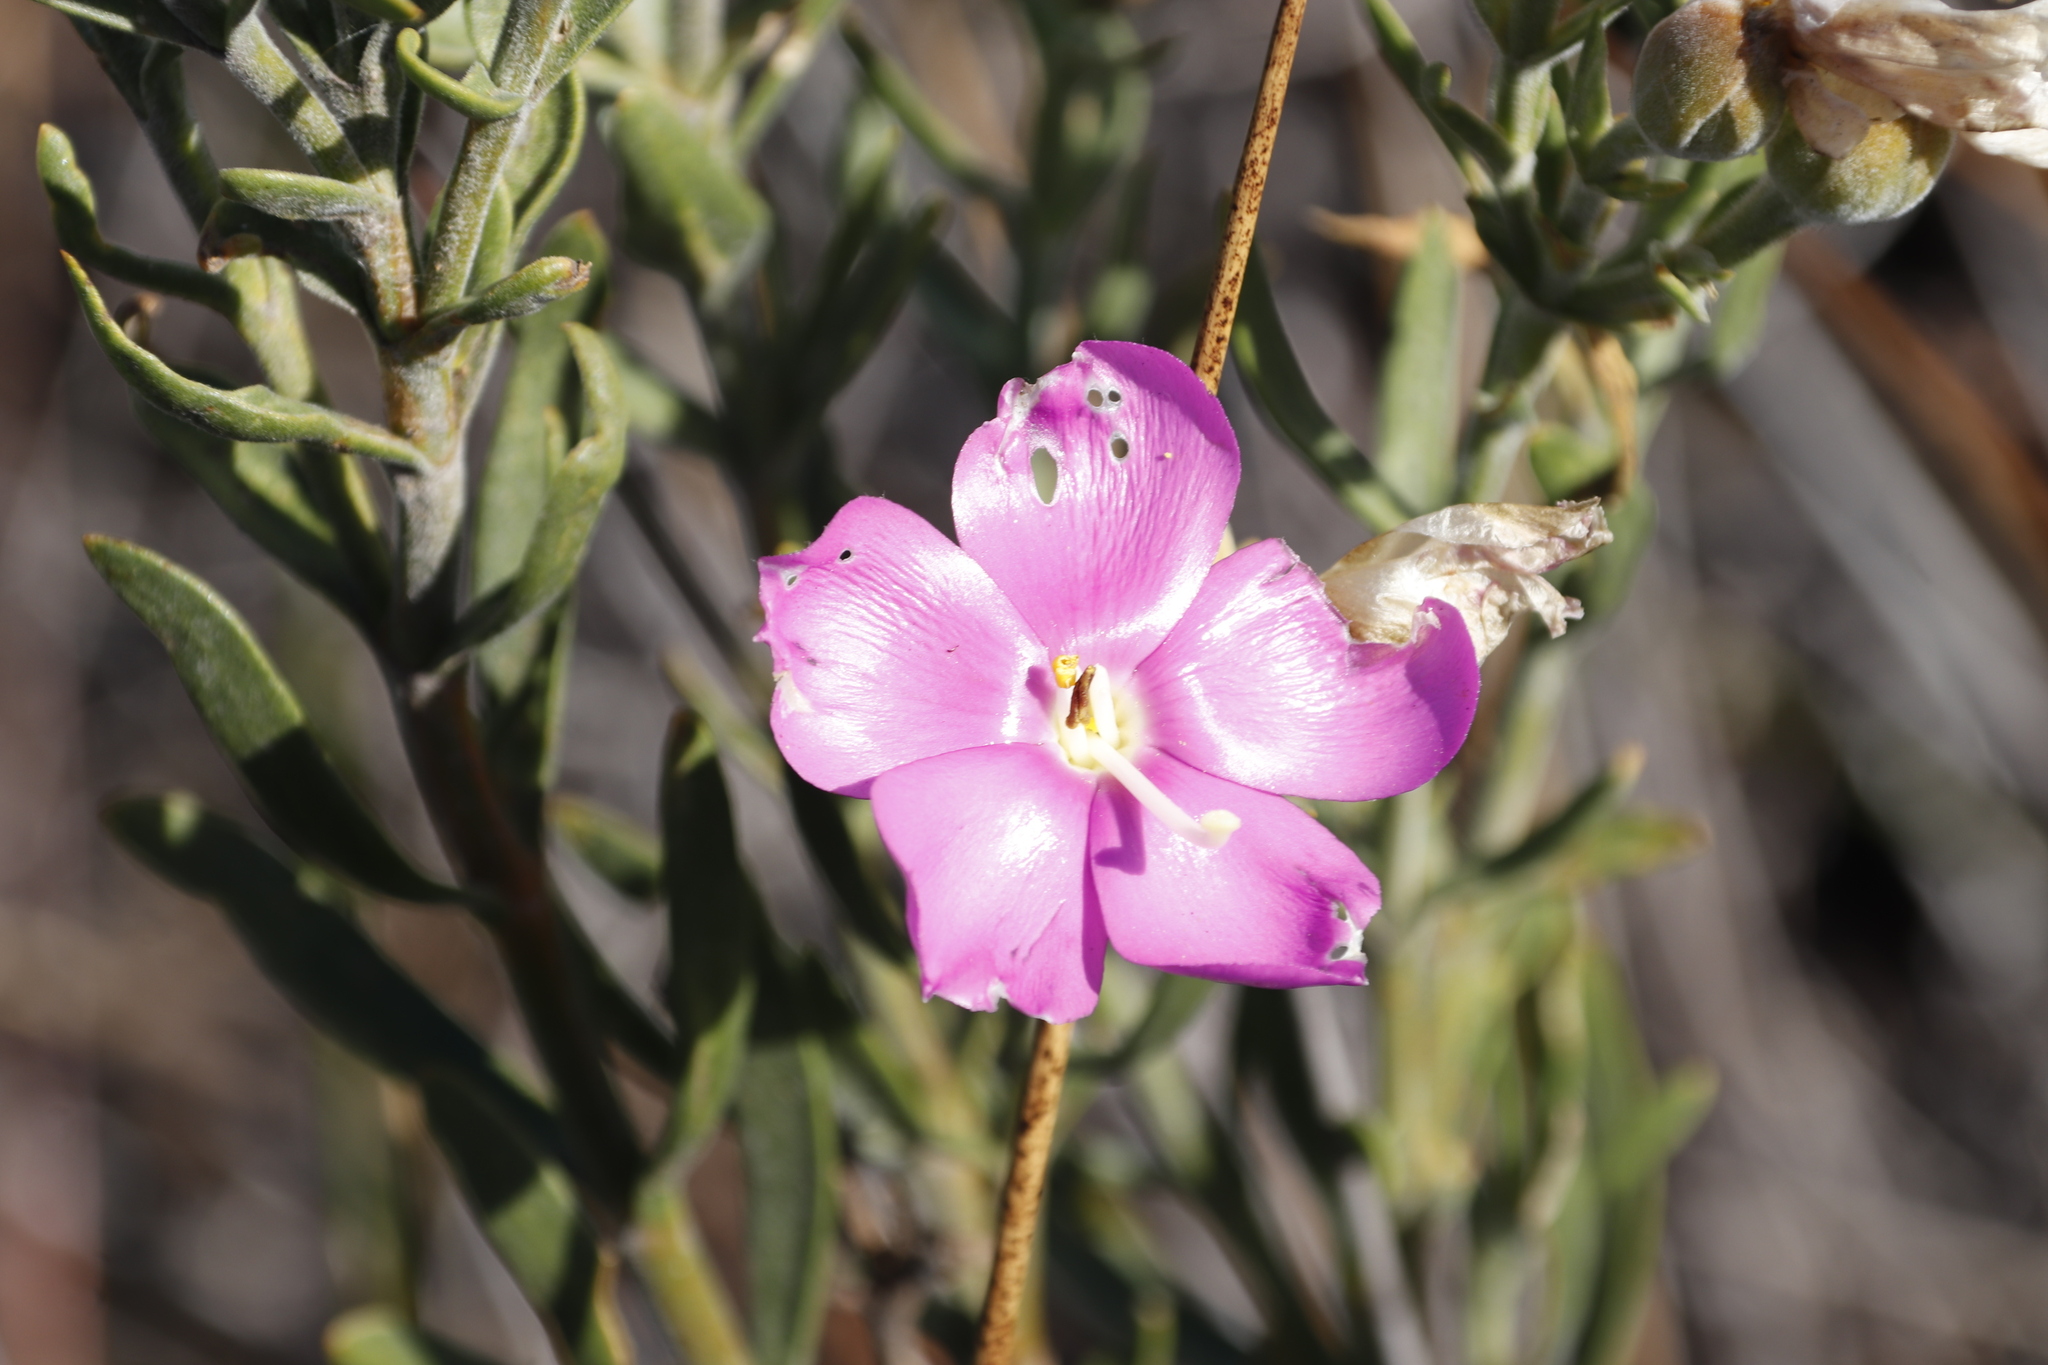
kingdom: Plantae
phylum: Tracheophyta
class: Magnoliopsida
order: Gentianales
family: Gentianaceae
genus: Orphium
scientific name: Orphium frutescens
